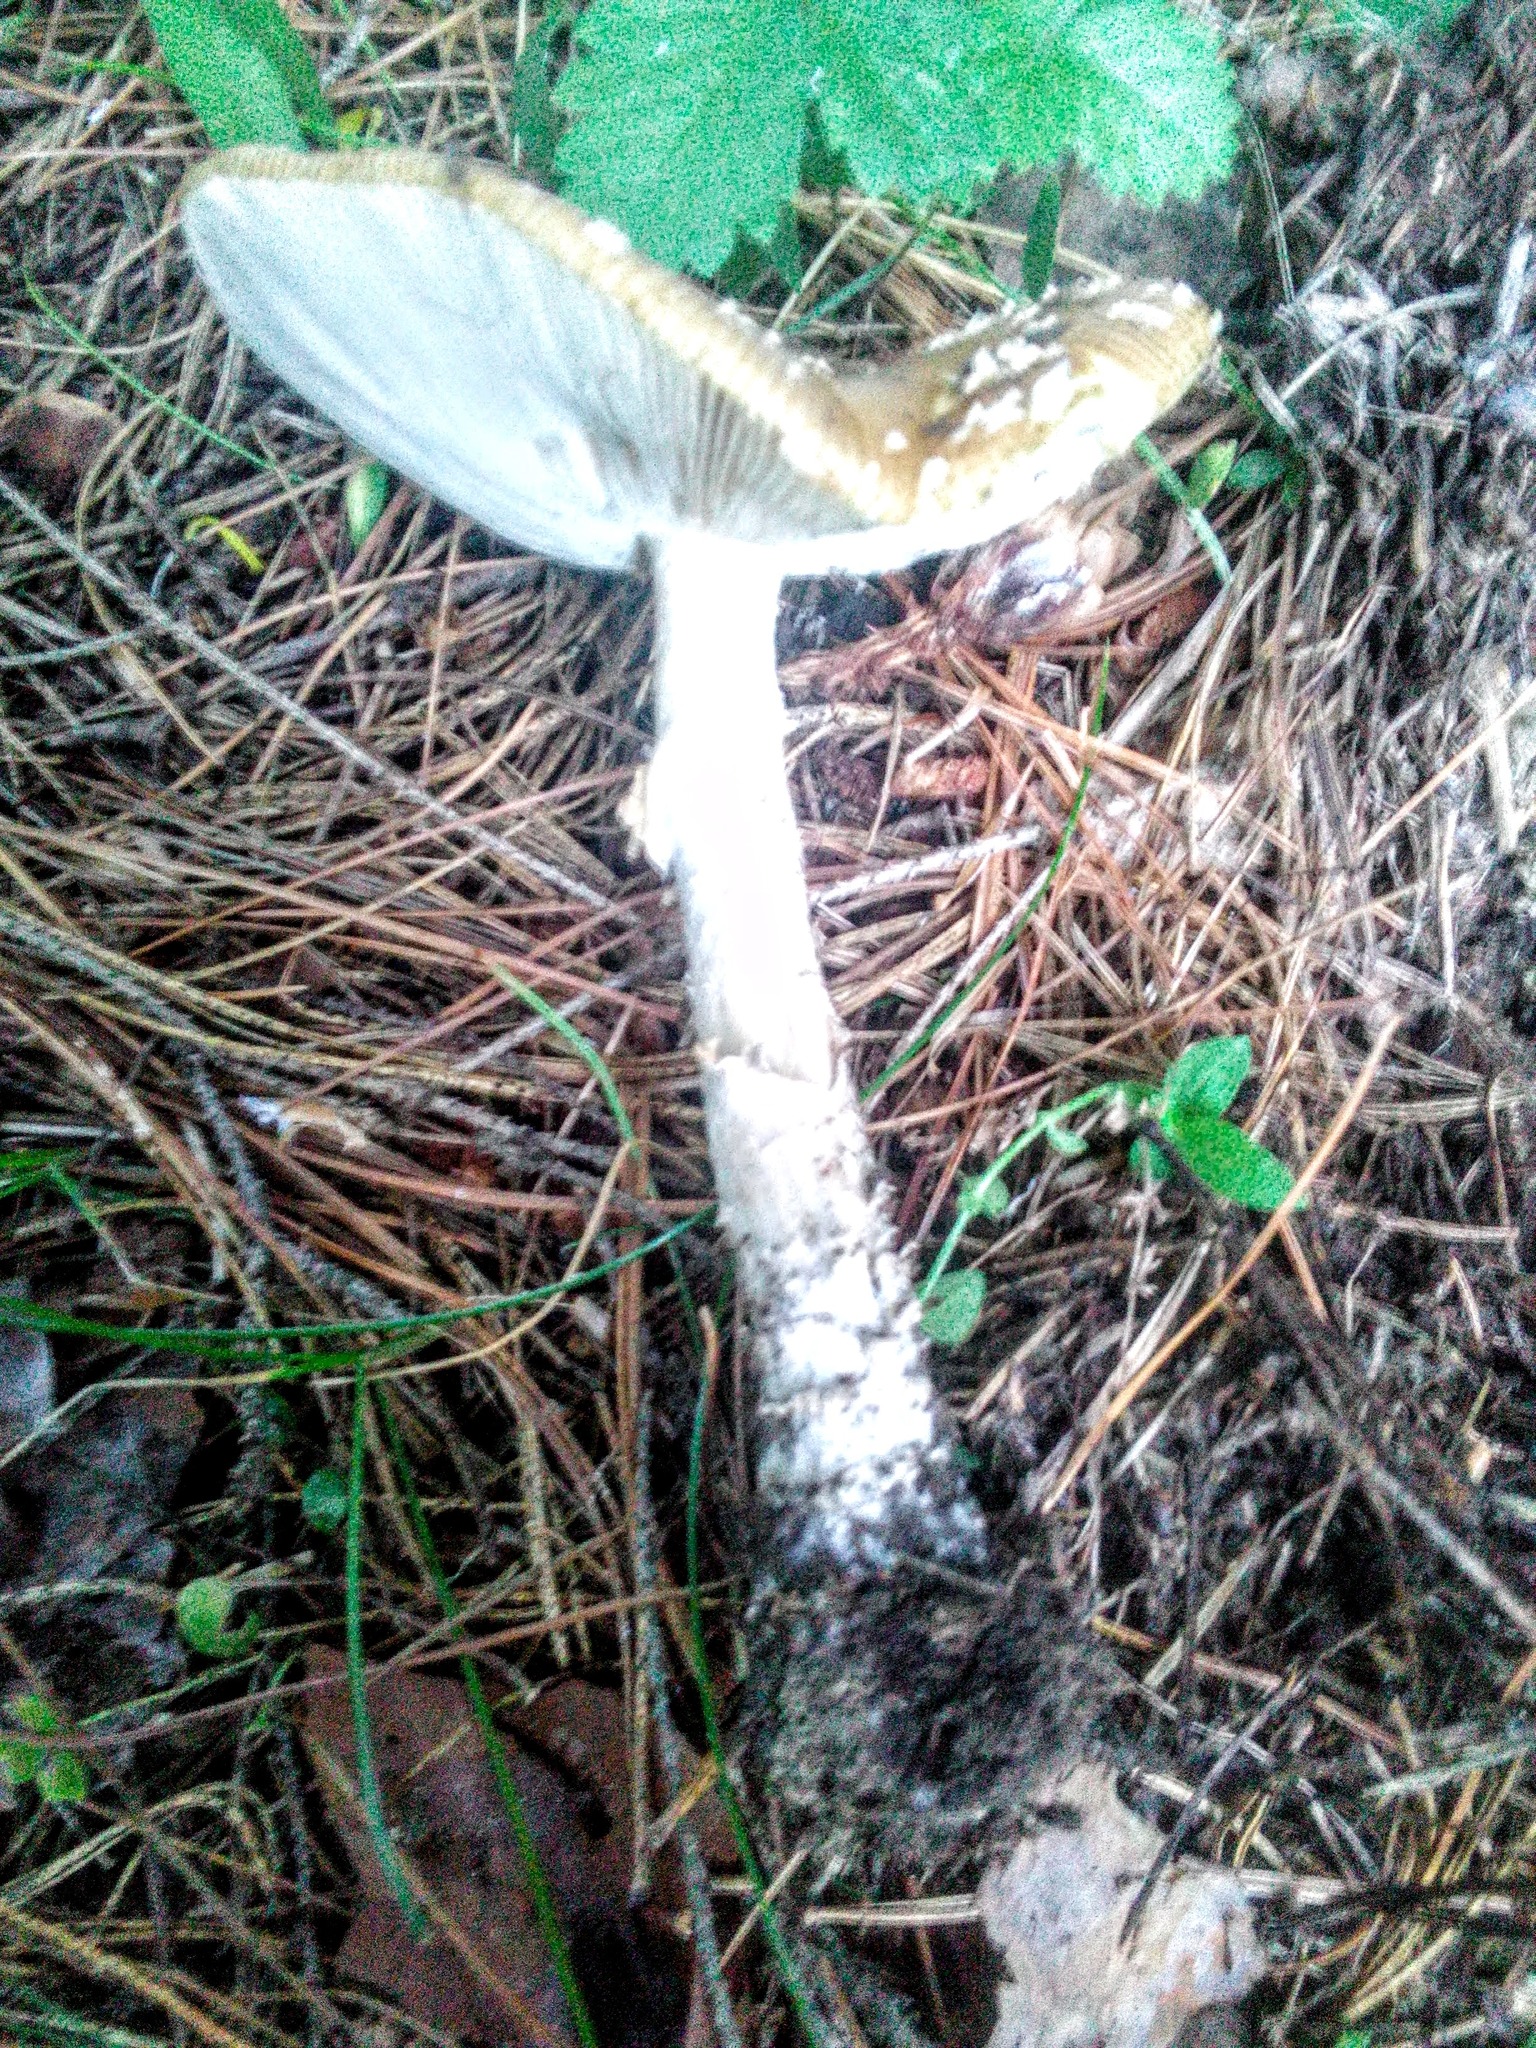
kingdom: Fungi
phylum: Basidiomycota
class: Agaricomycetes
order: Agaricales
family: Amanitaceae
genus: Amanita
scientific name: Amanita regalis
